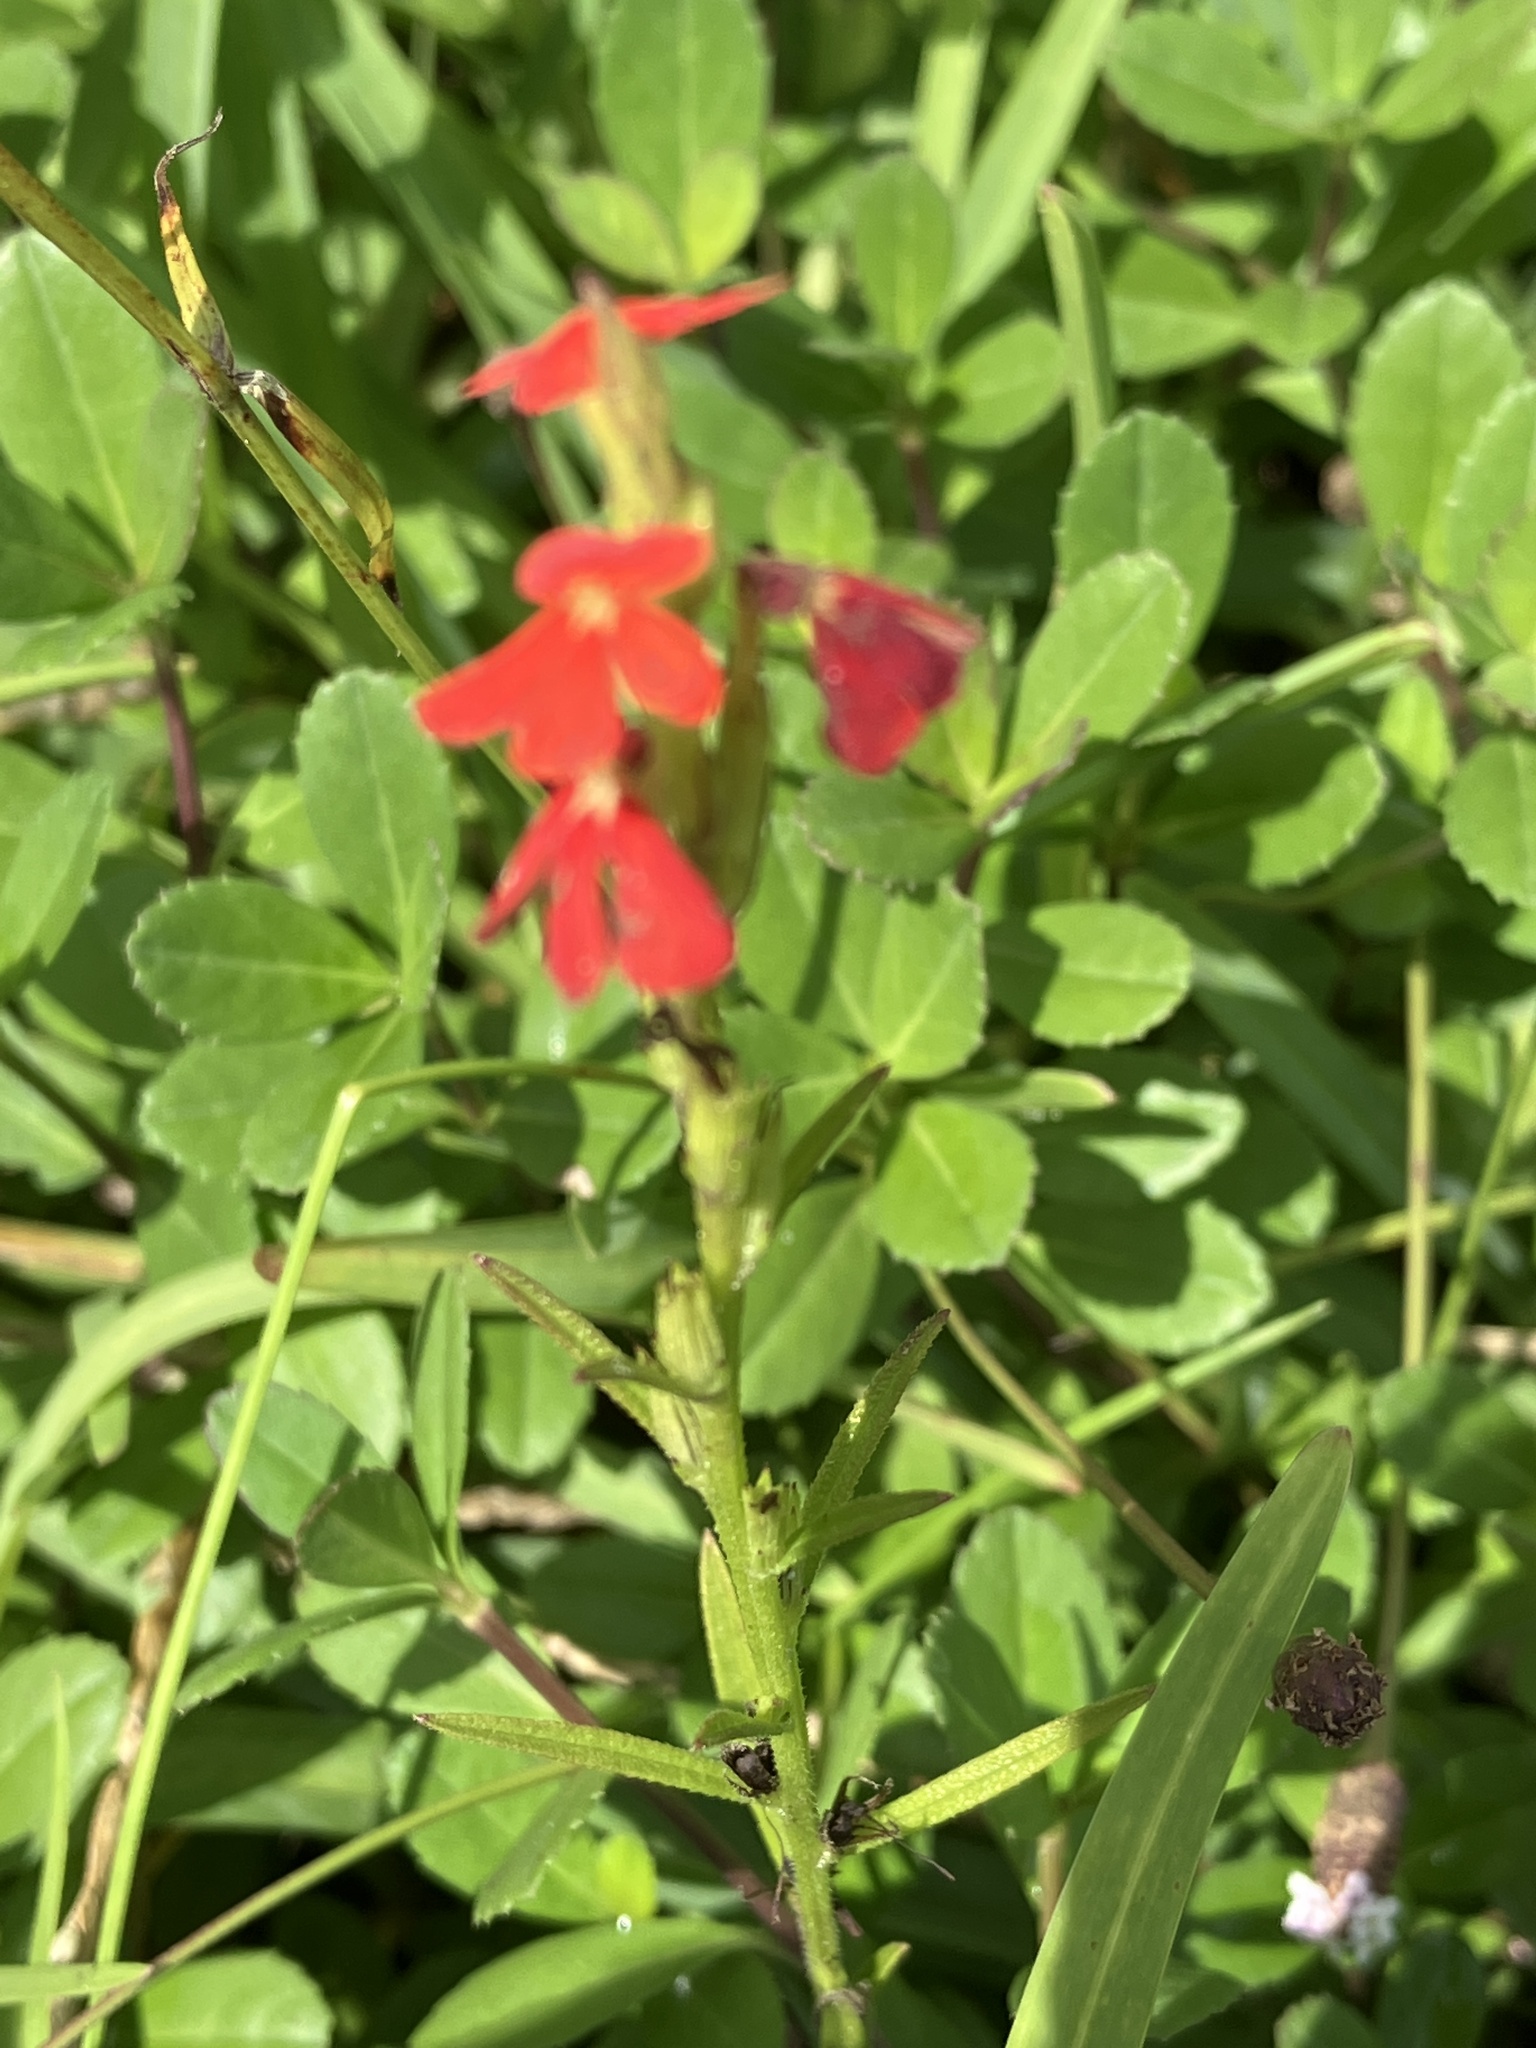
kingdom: Plantae
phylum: Tracheophyta
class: Magnoliopsida
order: Lamiales
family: Orobanchaceae
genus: Striga
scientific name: Striga asiatica
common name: Asiatic witchweed
